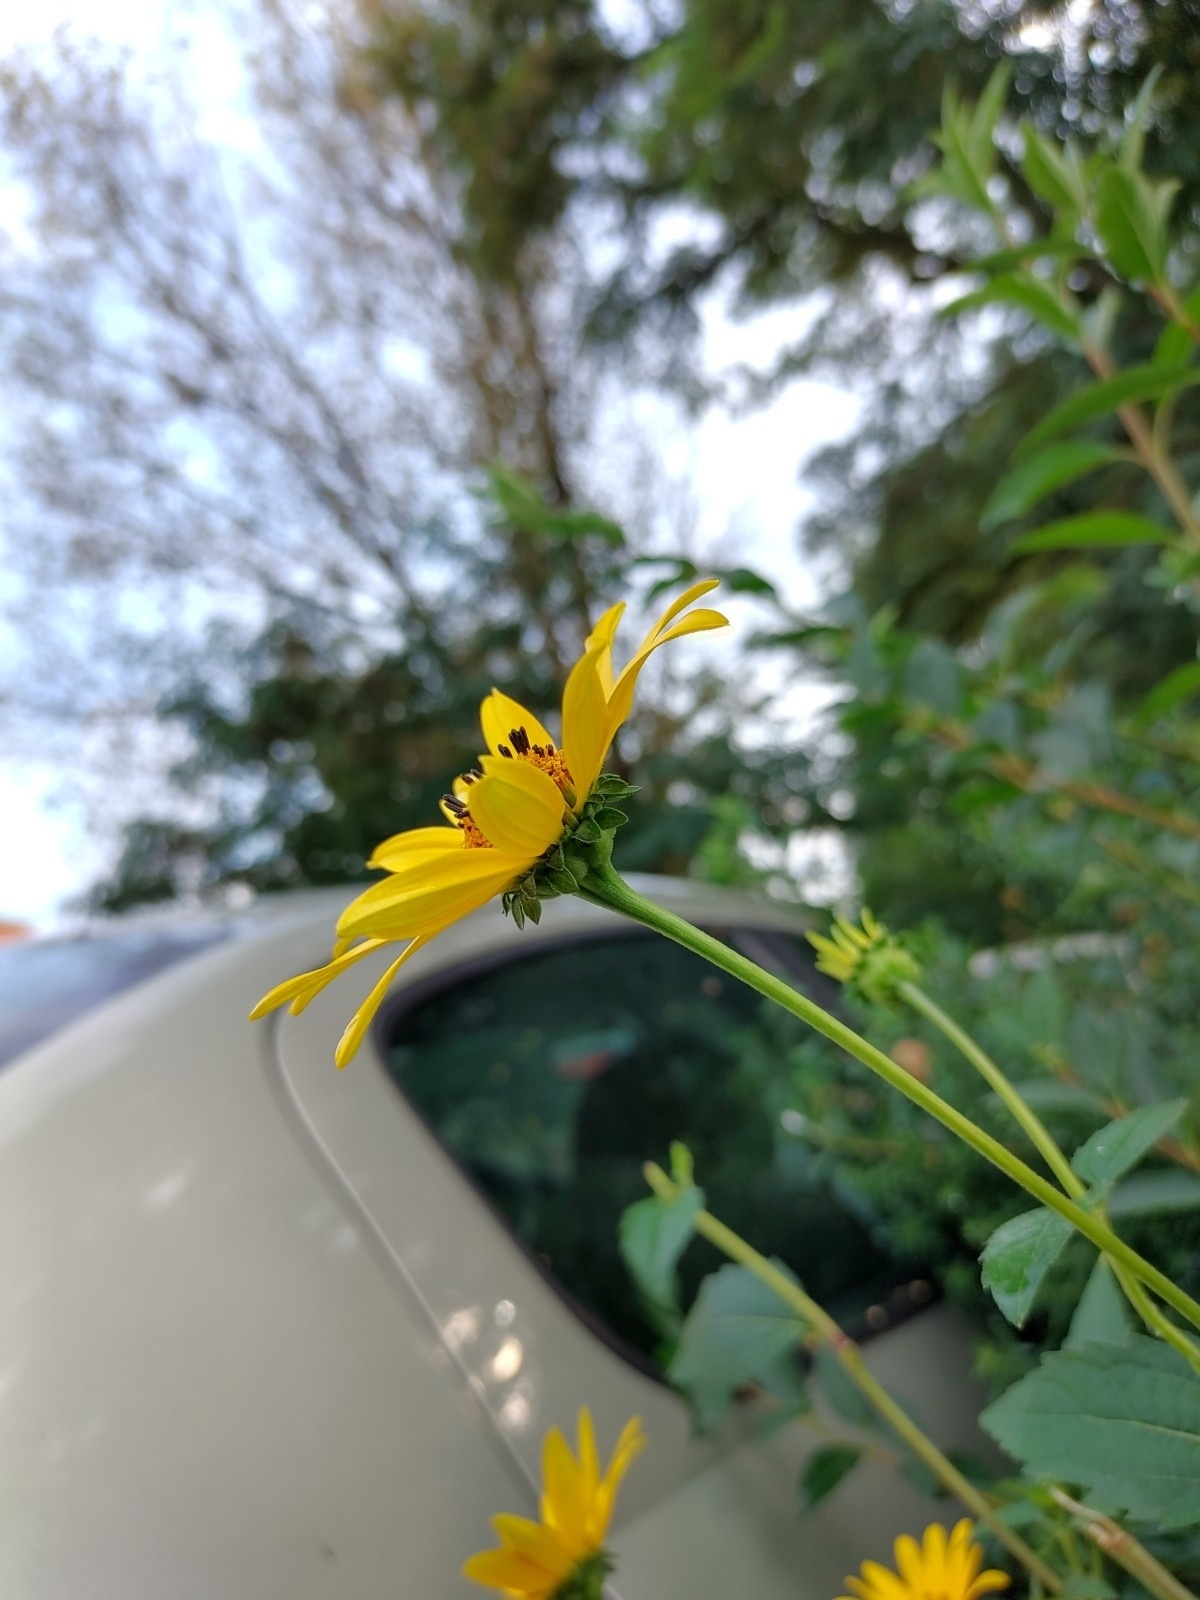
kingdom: Plantae
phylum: Tracheophyta
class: Magnoliopsida
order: Asterales
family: Asteraceae
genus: Helianthus
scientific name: Helianthus tuberosus
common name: Jerusalem artichoke
